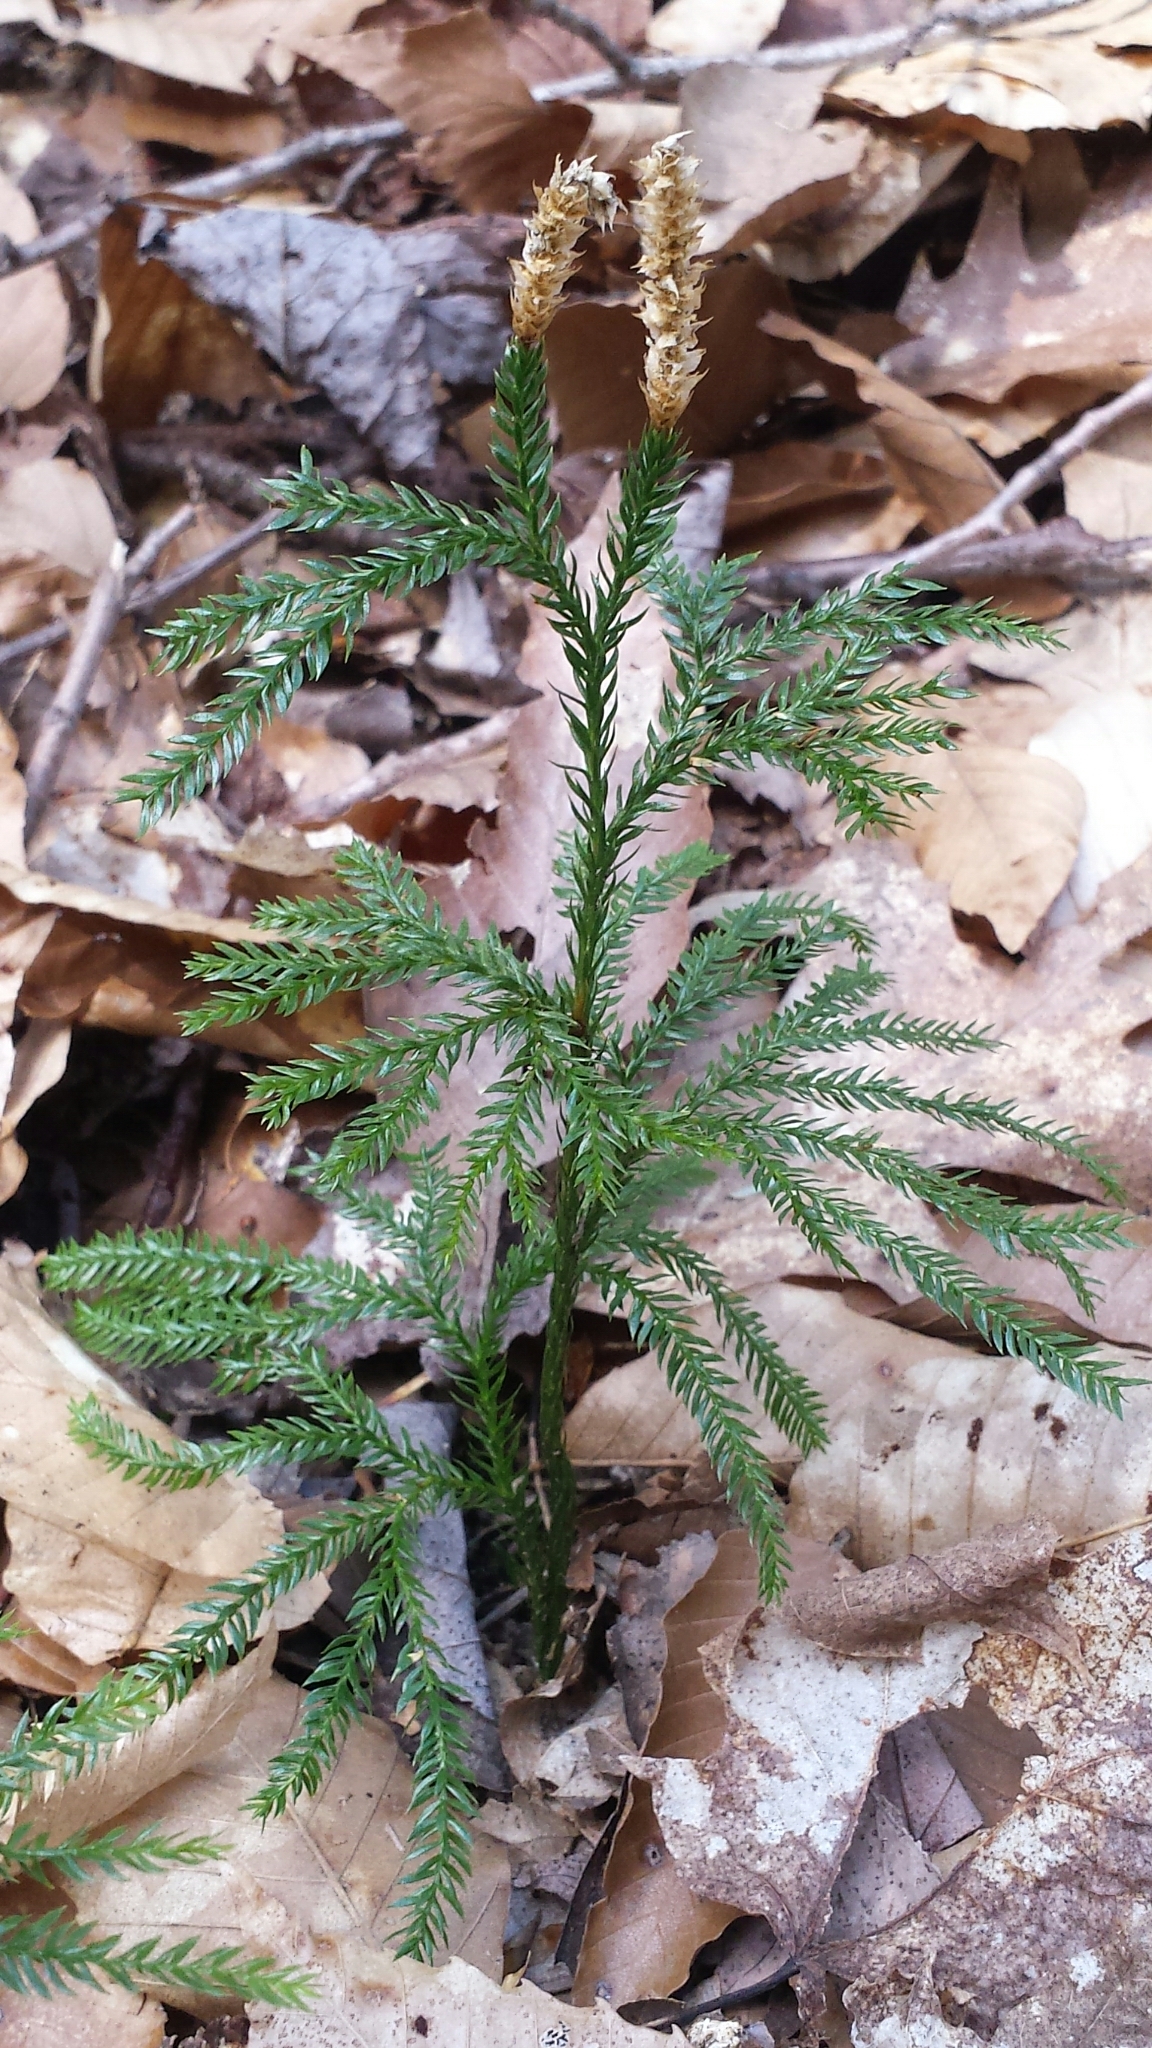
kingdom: Plantae
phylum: Tracheophyta
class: Lycopodiopsida
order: Lycopodiales
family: Lycopodiaceae
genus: Dendrolycopodium
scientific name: Dendrolycopodium obscurum
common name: Common ground-pine
